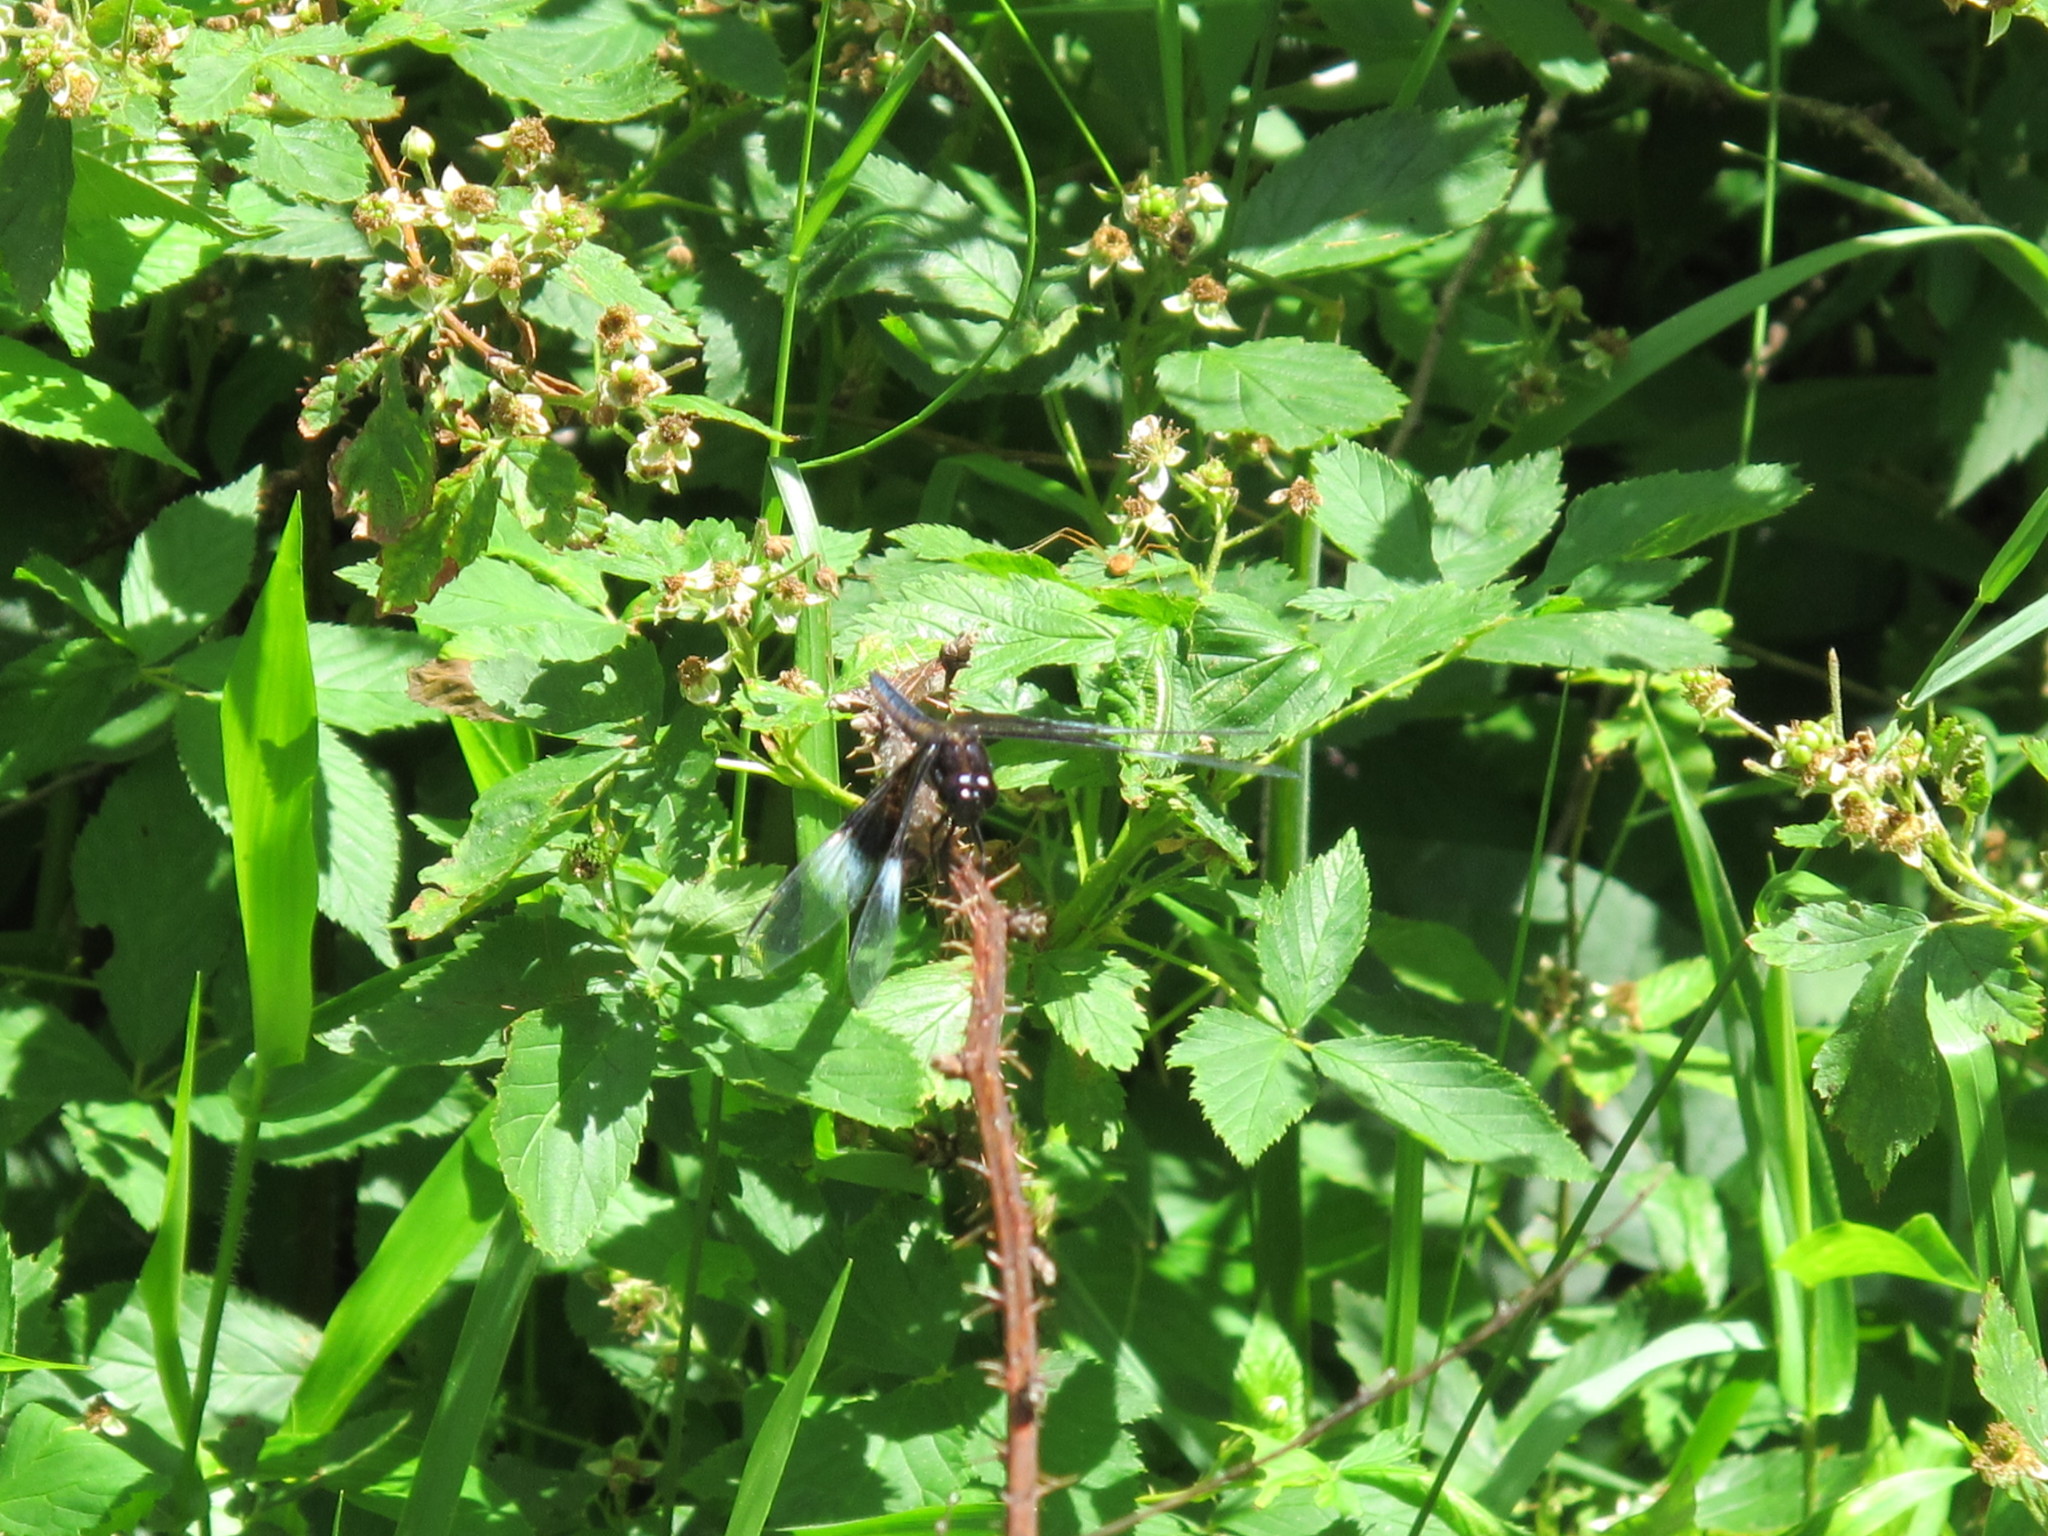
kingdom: Animalia
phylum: Arthropoda
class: Insecta
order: Odonata
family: Libellulidae
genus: Libellula
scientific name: Libellula luctuosa
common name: Widow skimmer
